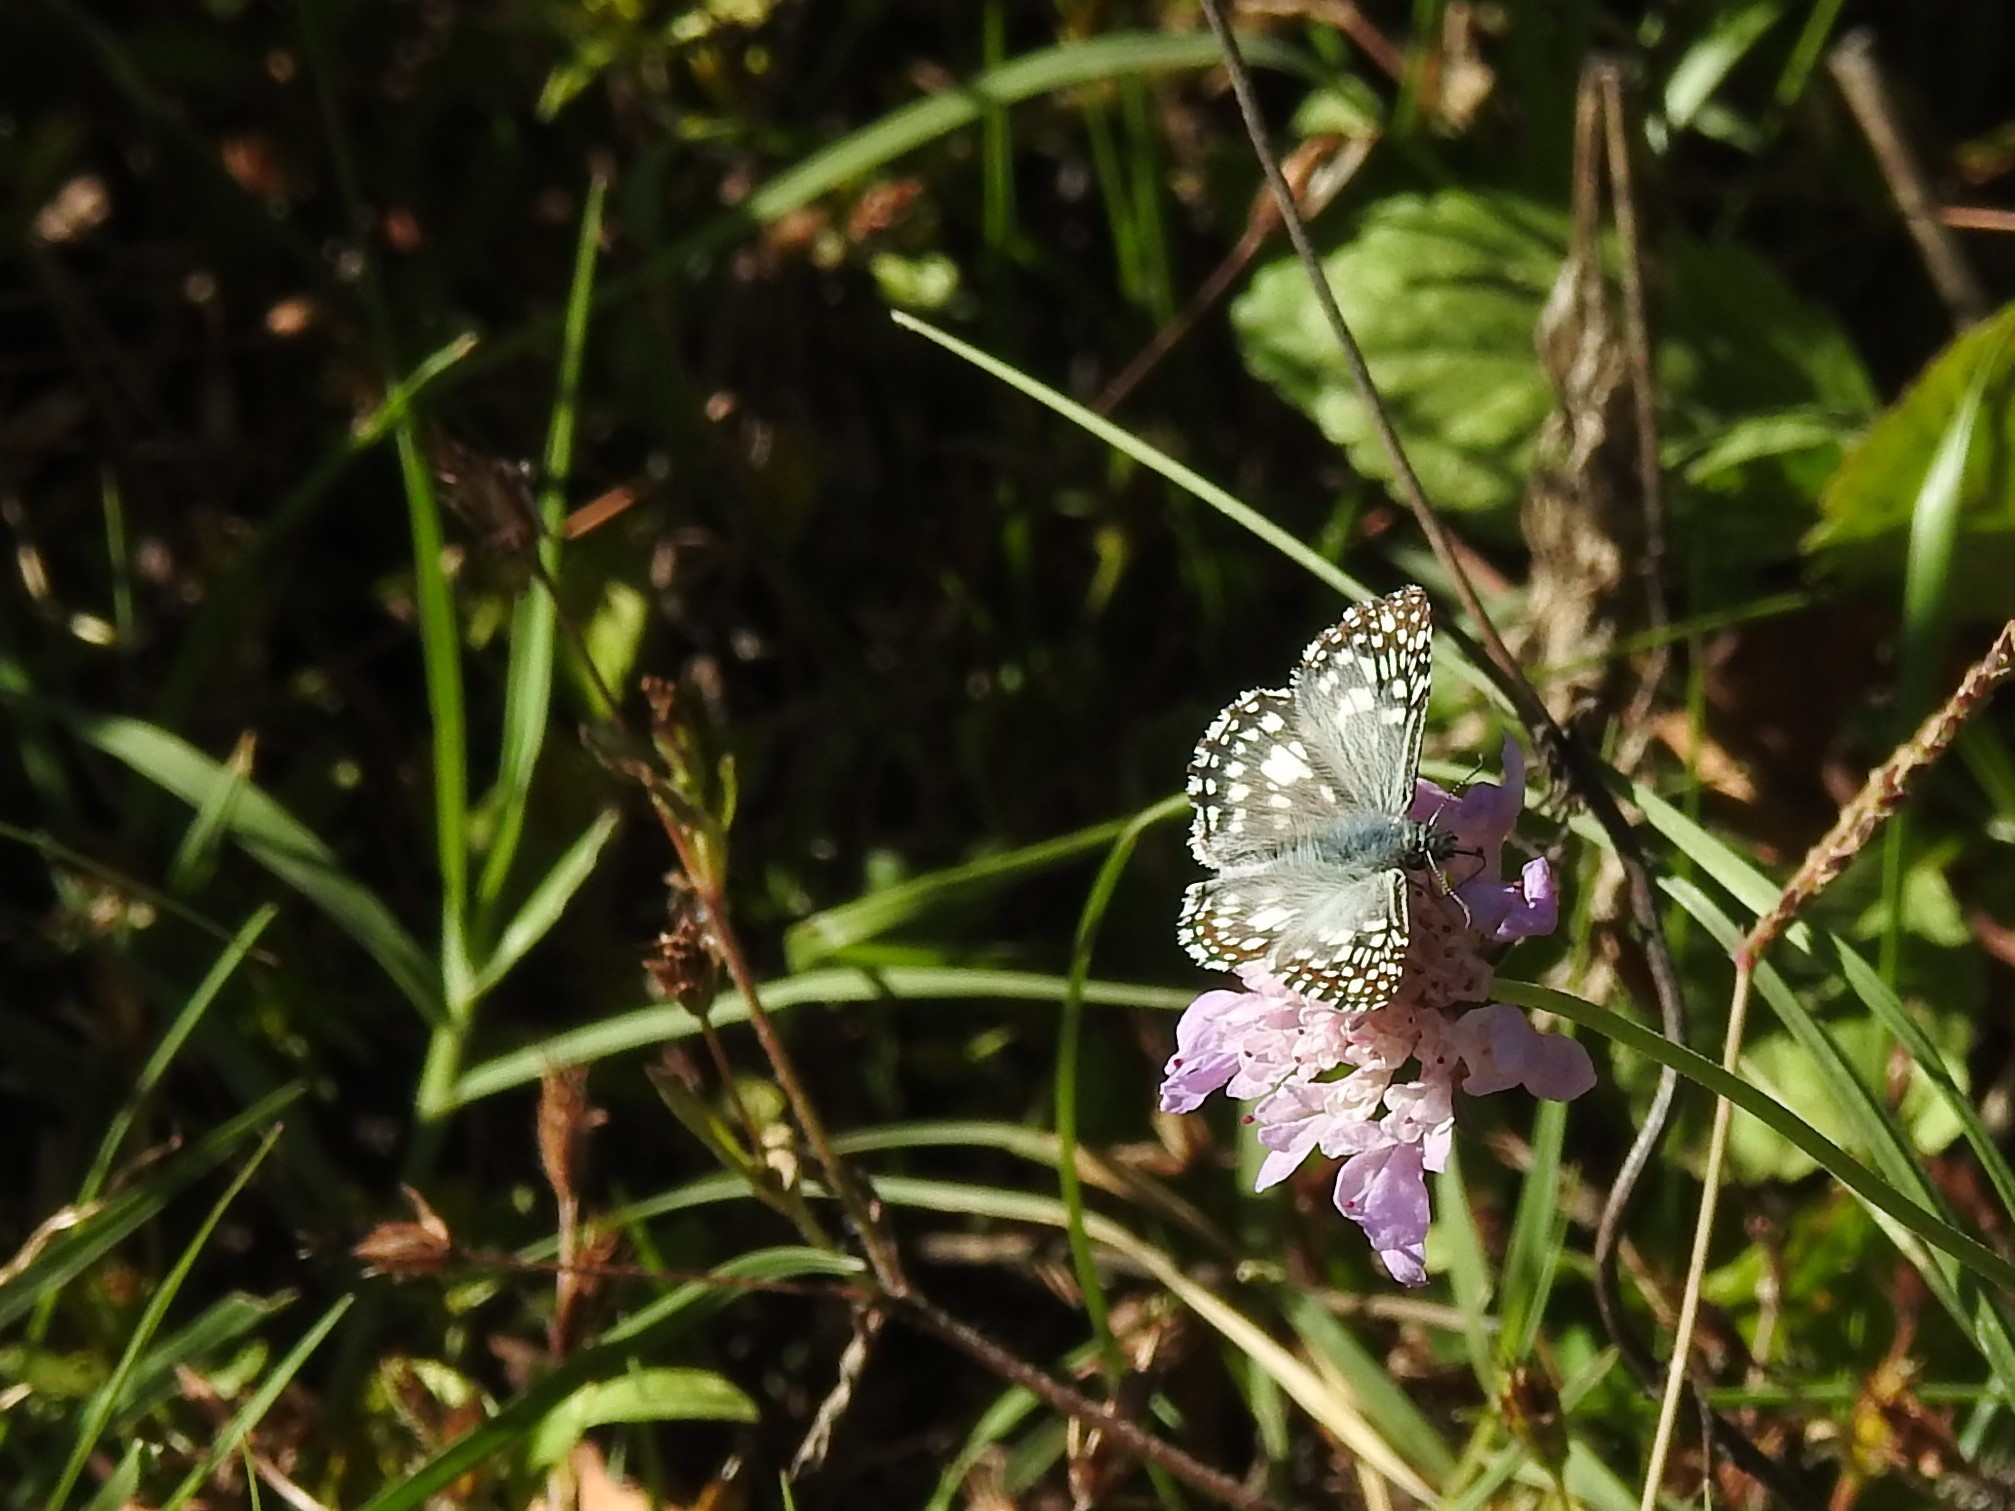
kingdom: Animalia
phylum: Arthropoda
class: Insecta
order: Lepidoptera
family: Hesperiidae
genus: Pyrgus
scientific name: Pyrgus oileus
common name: Tropical checkered-skipper
